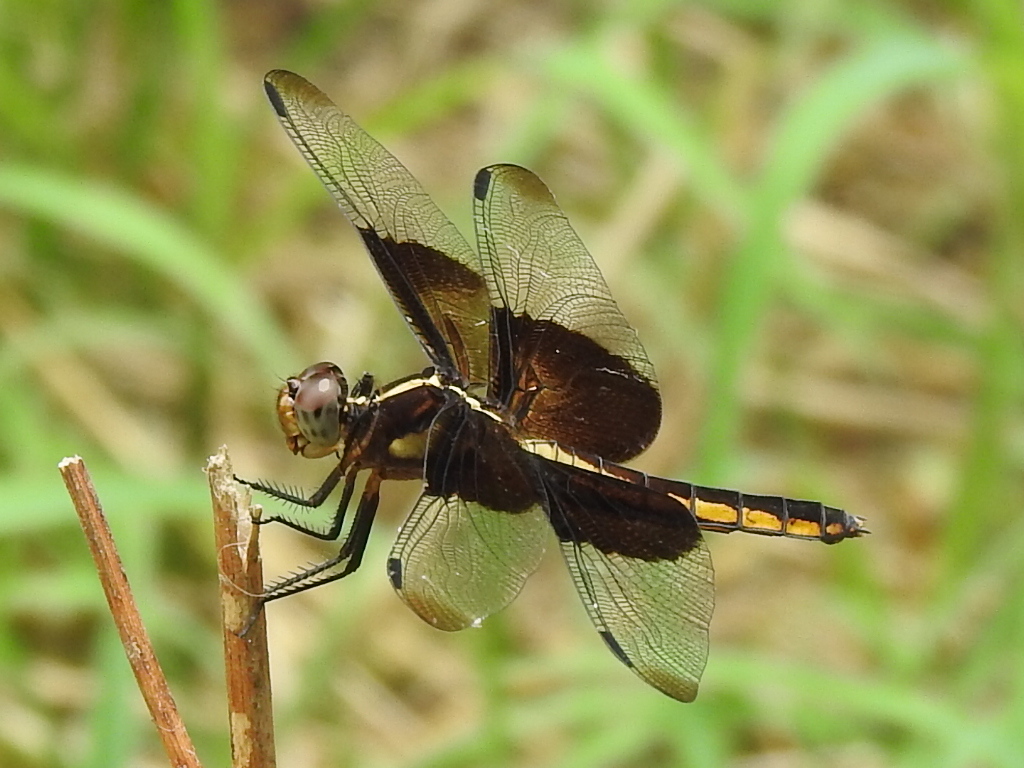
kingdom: Animalia
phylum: Arthropoda
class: Insecta
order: Odonata
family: Libellulidae
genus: Libellula
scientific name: Libellula luctuosa
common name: Widow skimmer
